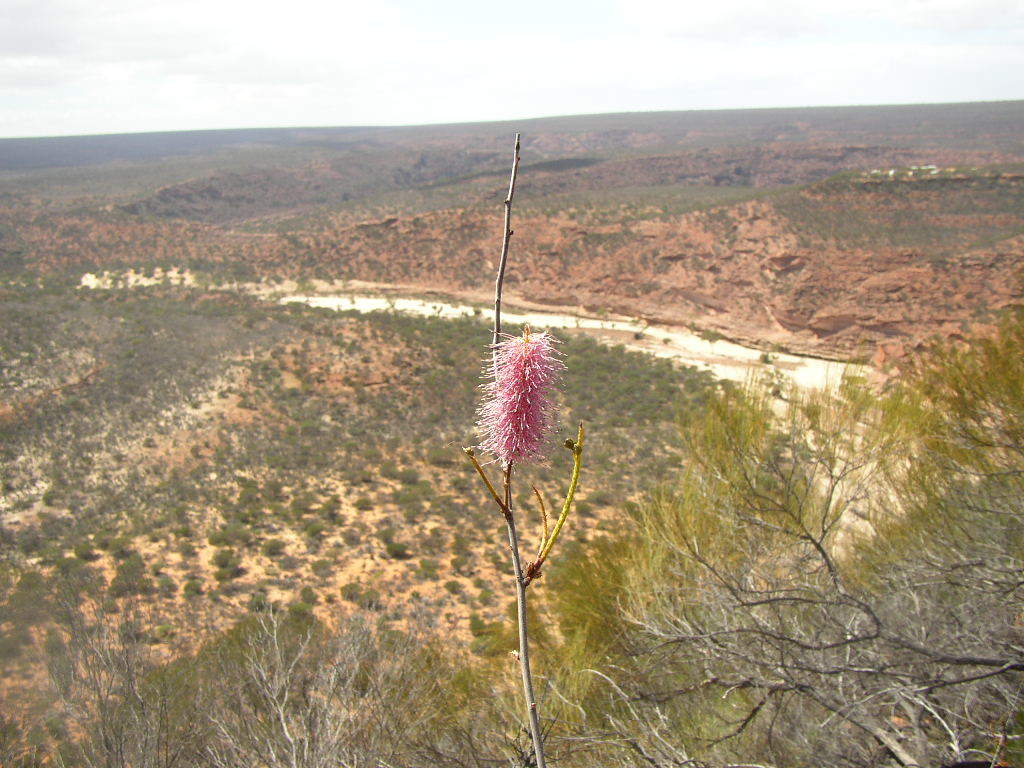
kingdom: Plantae
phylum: Tracheophyta
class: Magnoliopsida
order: Proteales
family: Proteaceae
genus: Grevillea
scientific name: Grevillea petrophiloides
